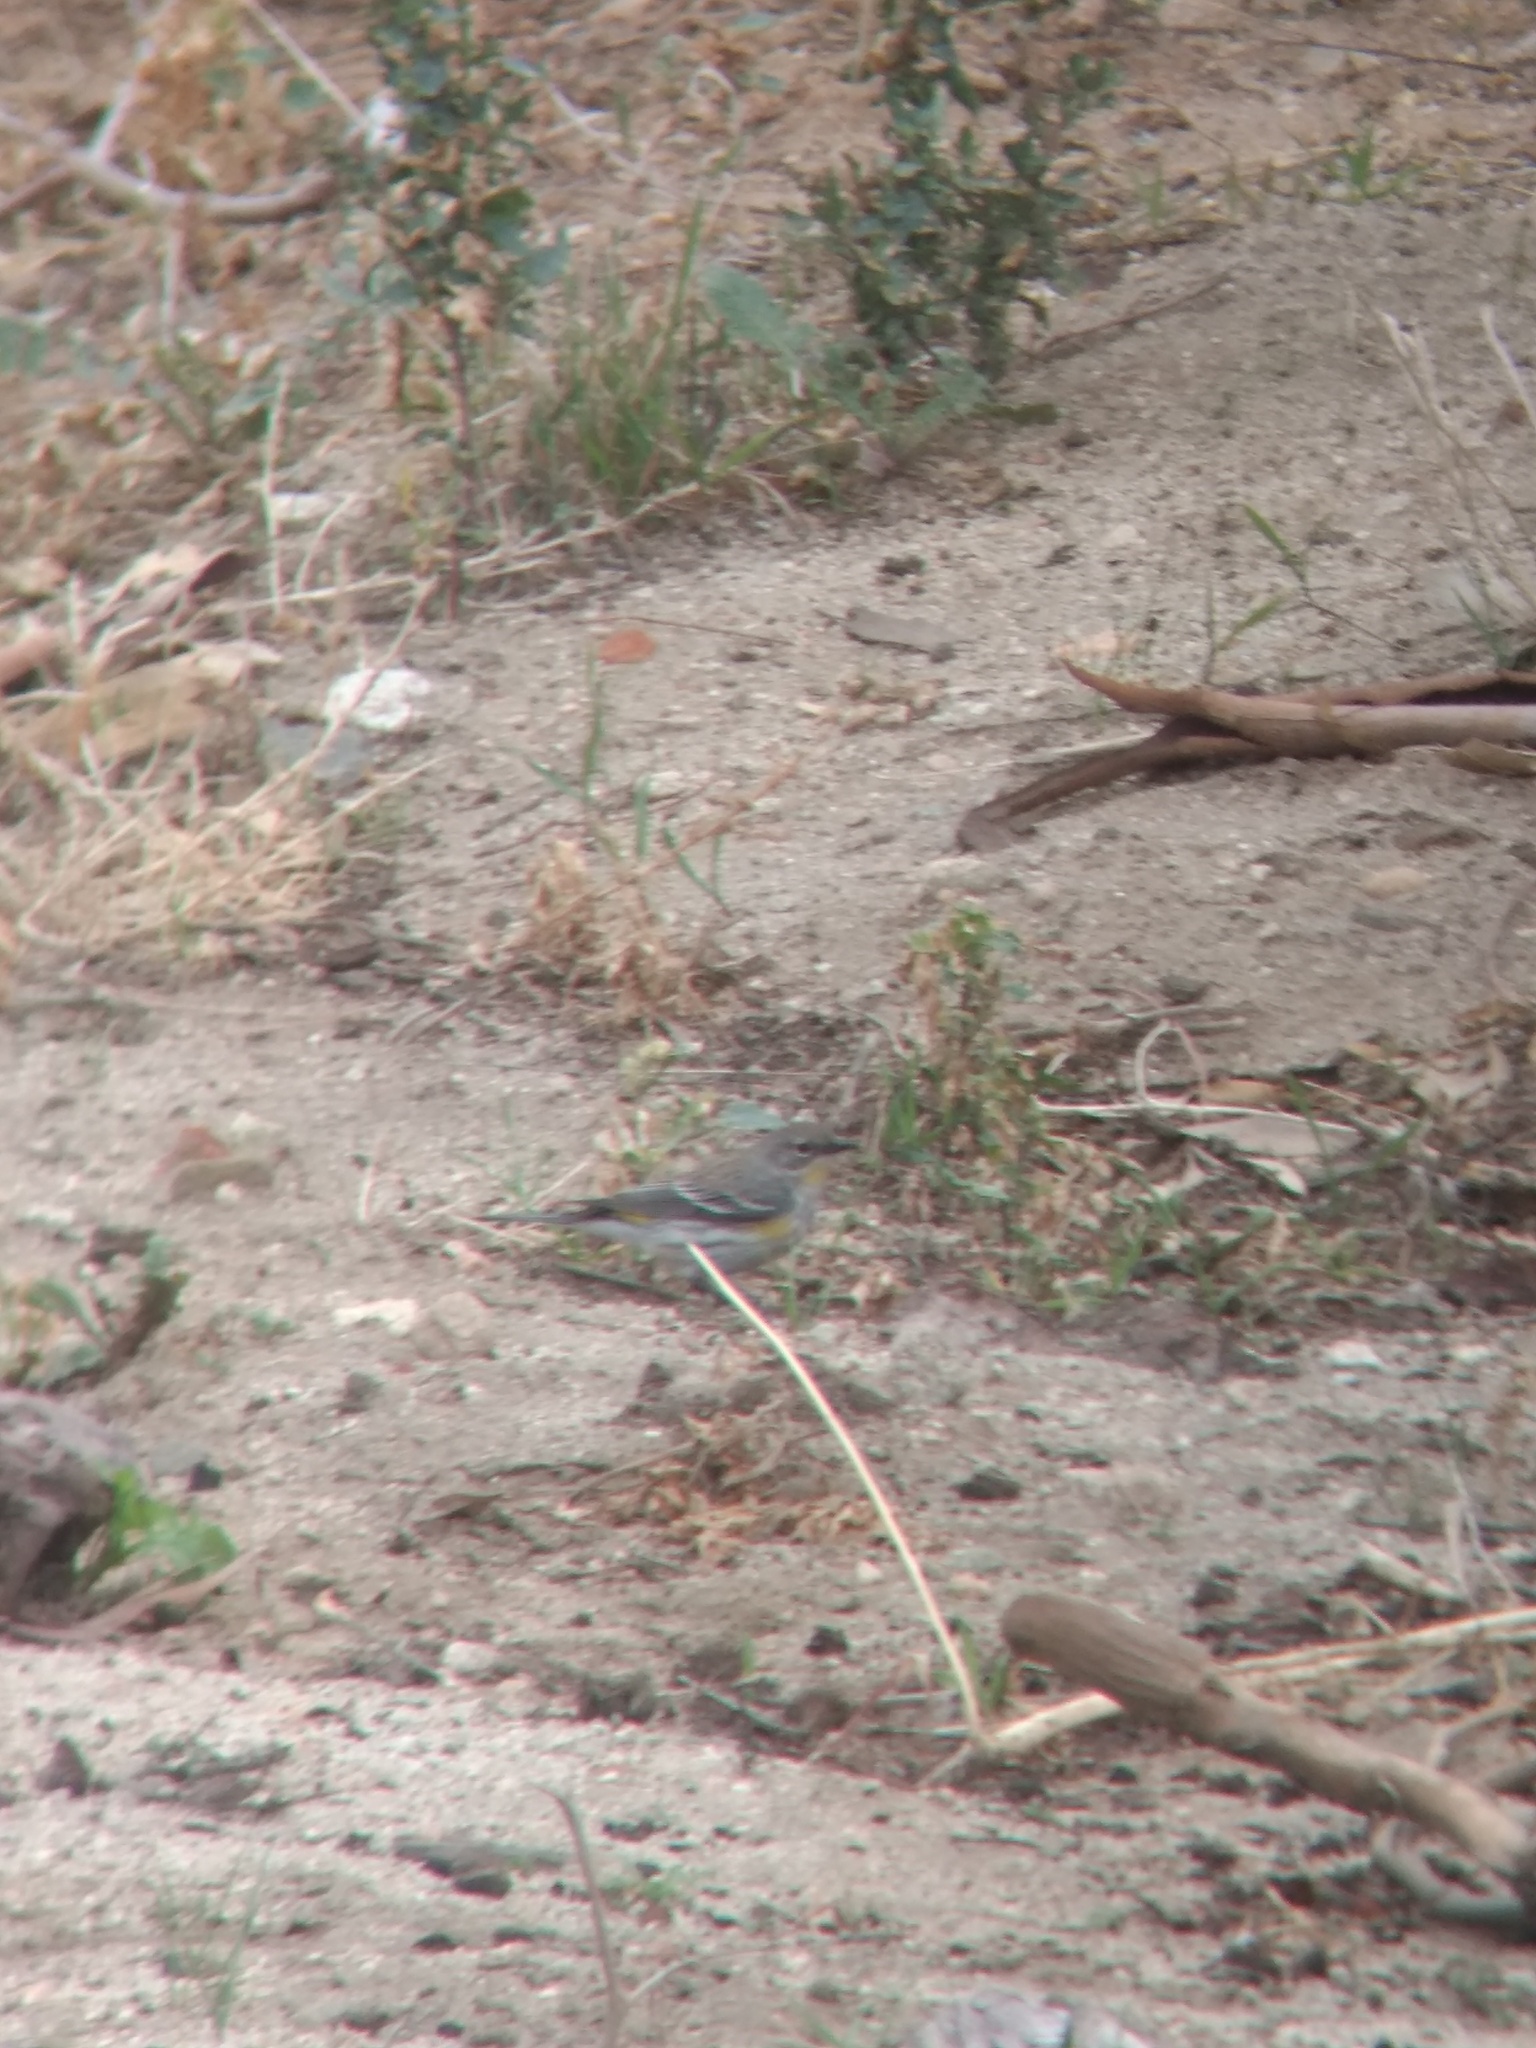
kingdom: Animalia
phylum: Chordata
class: Aves
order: Passeriformes
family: Parulidae
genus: Setophaga
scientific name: Setophaga coronata
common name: Myrtle warbler
